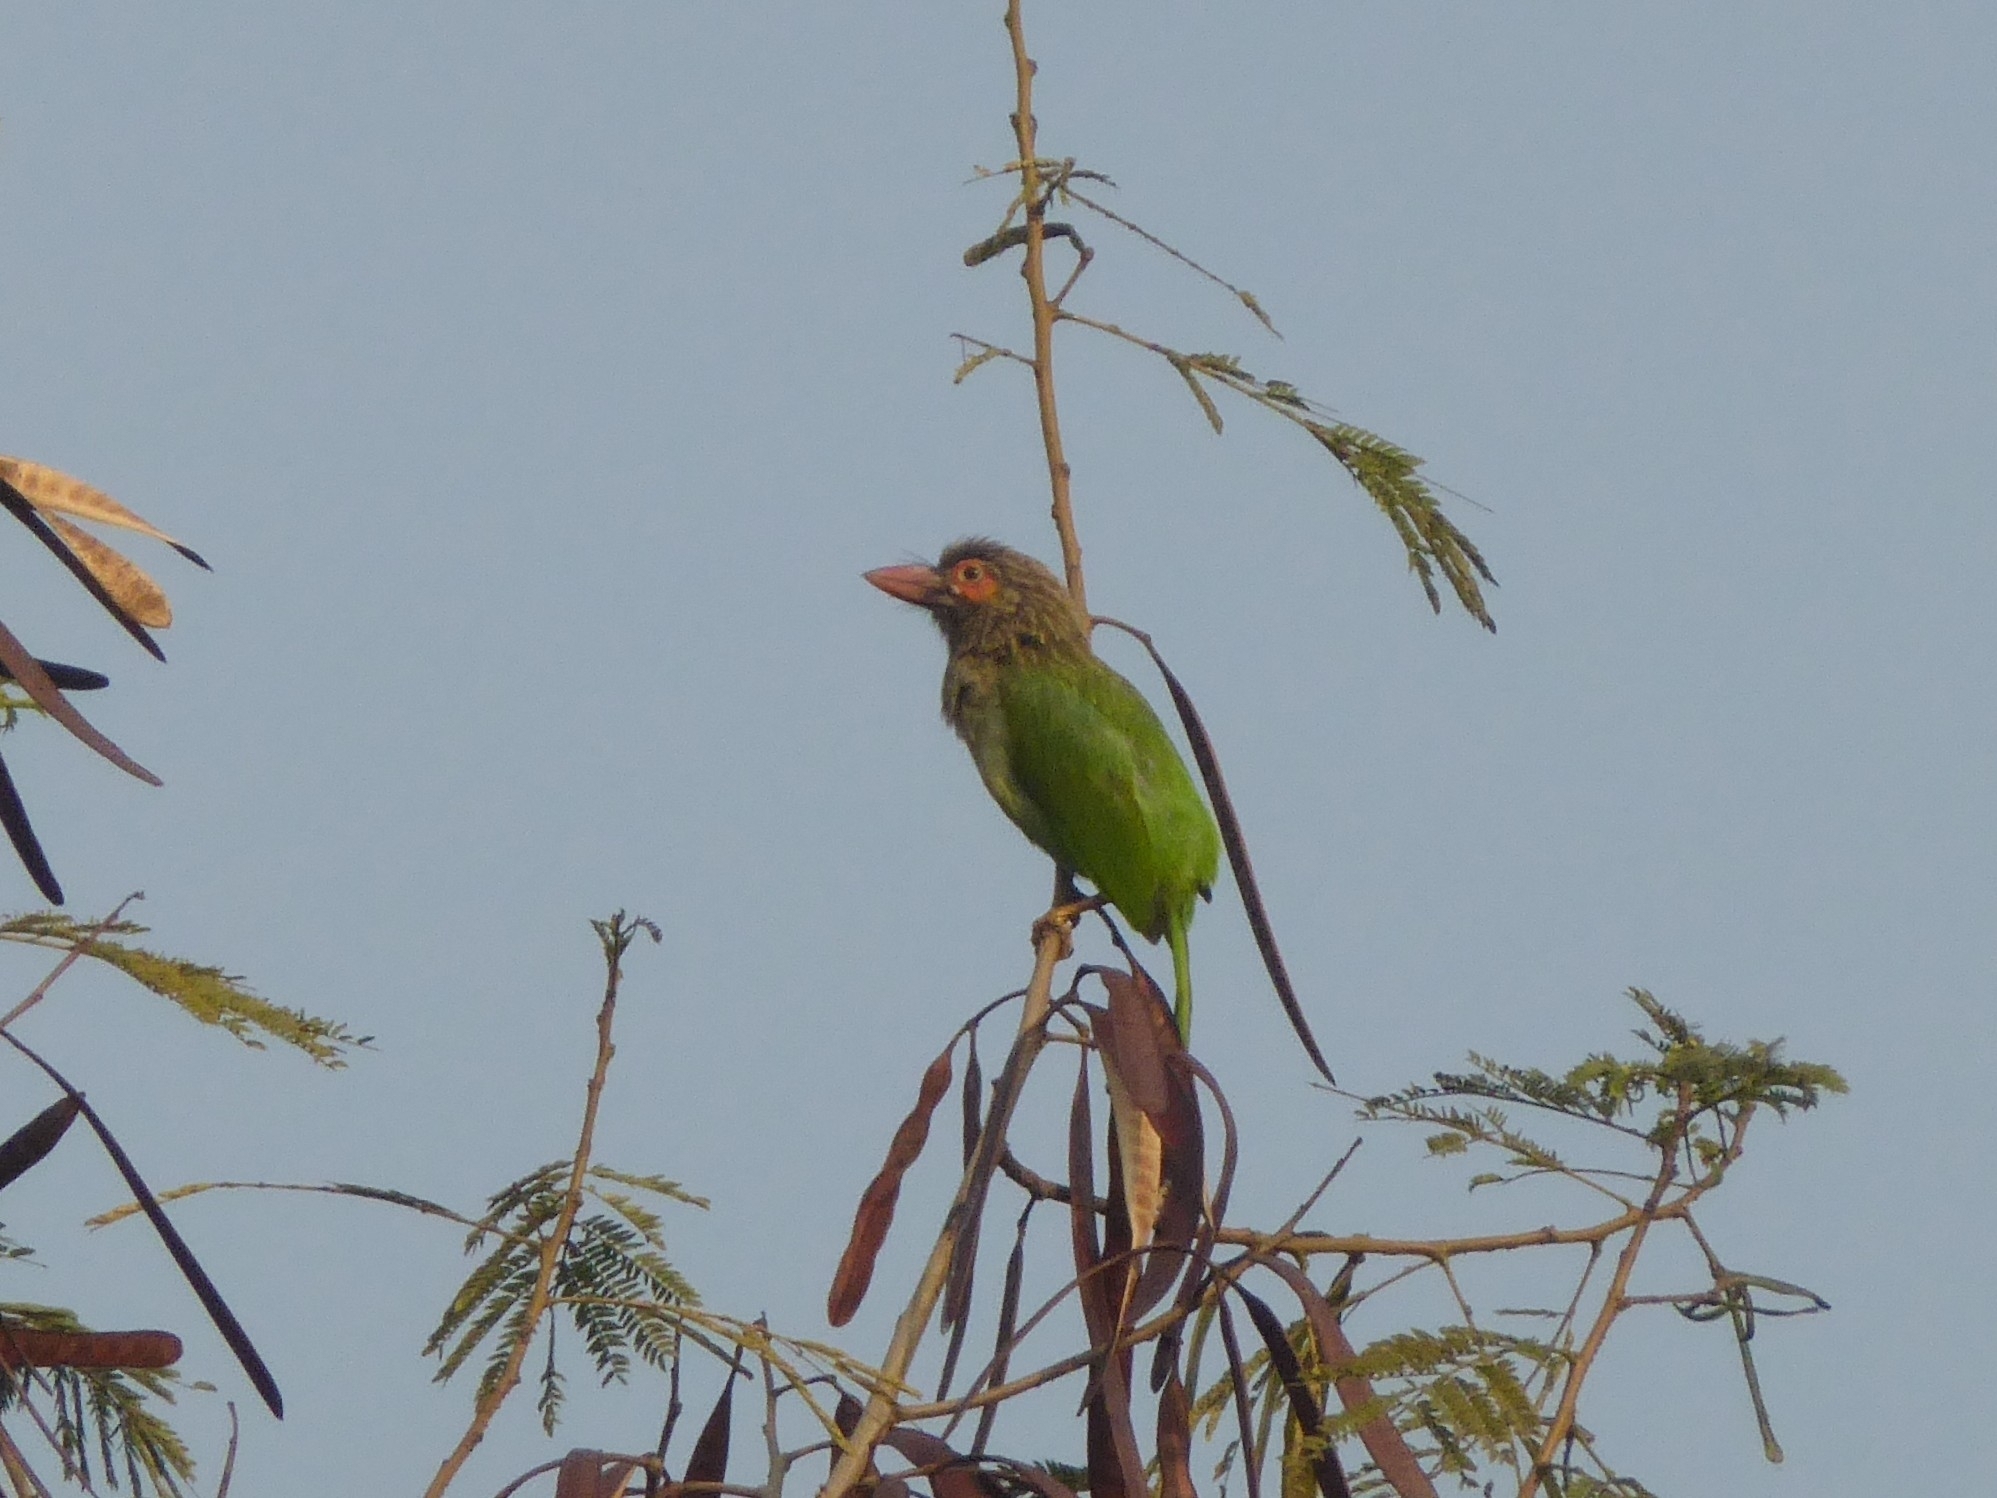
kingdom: Animalia
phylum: Chordata
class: Aves
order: Piciformes
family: Megalaimidae
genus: Psilopogon
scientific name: Psilopogon zeylanicus
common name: Brown-headed barbet
